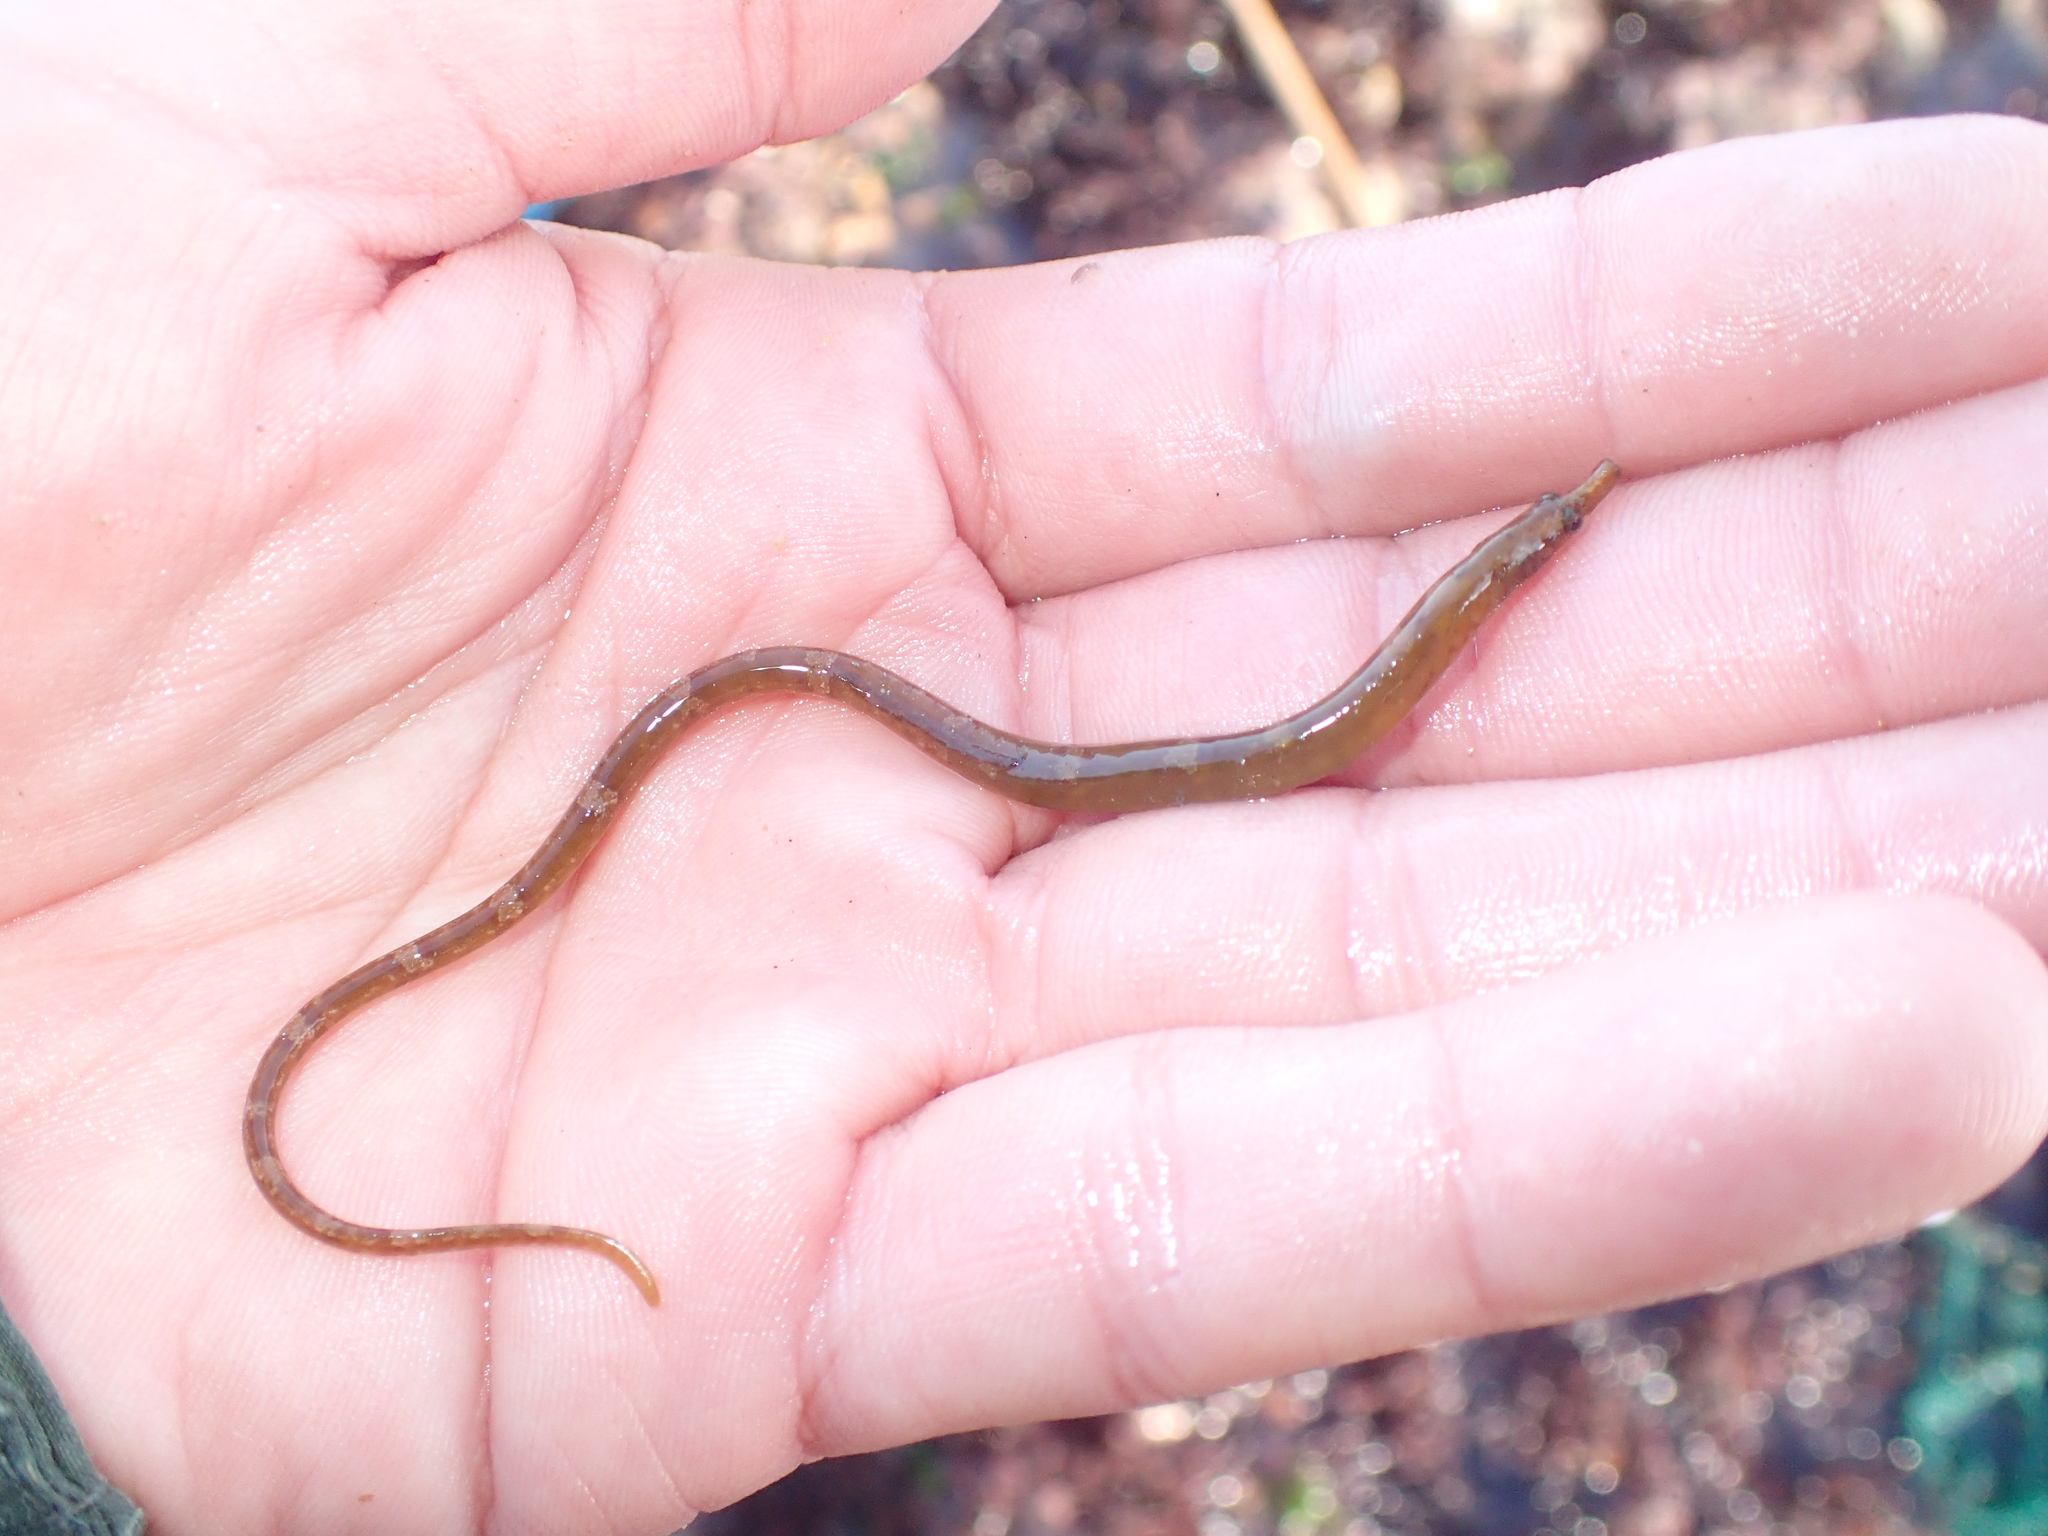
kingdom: Animalia
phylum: Chordata
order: Syngnathiformes
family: Syngnathidae
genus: Nerophis
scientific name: Nerophis lumbriciformis
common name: Worm pipefish
